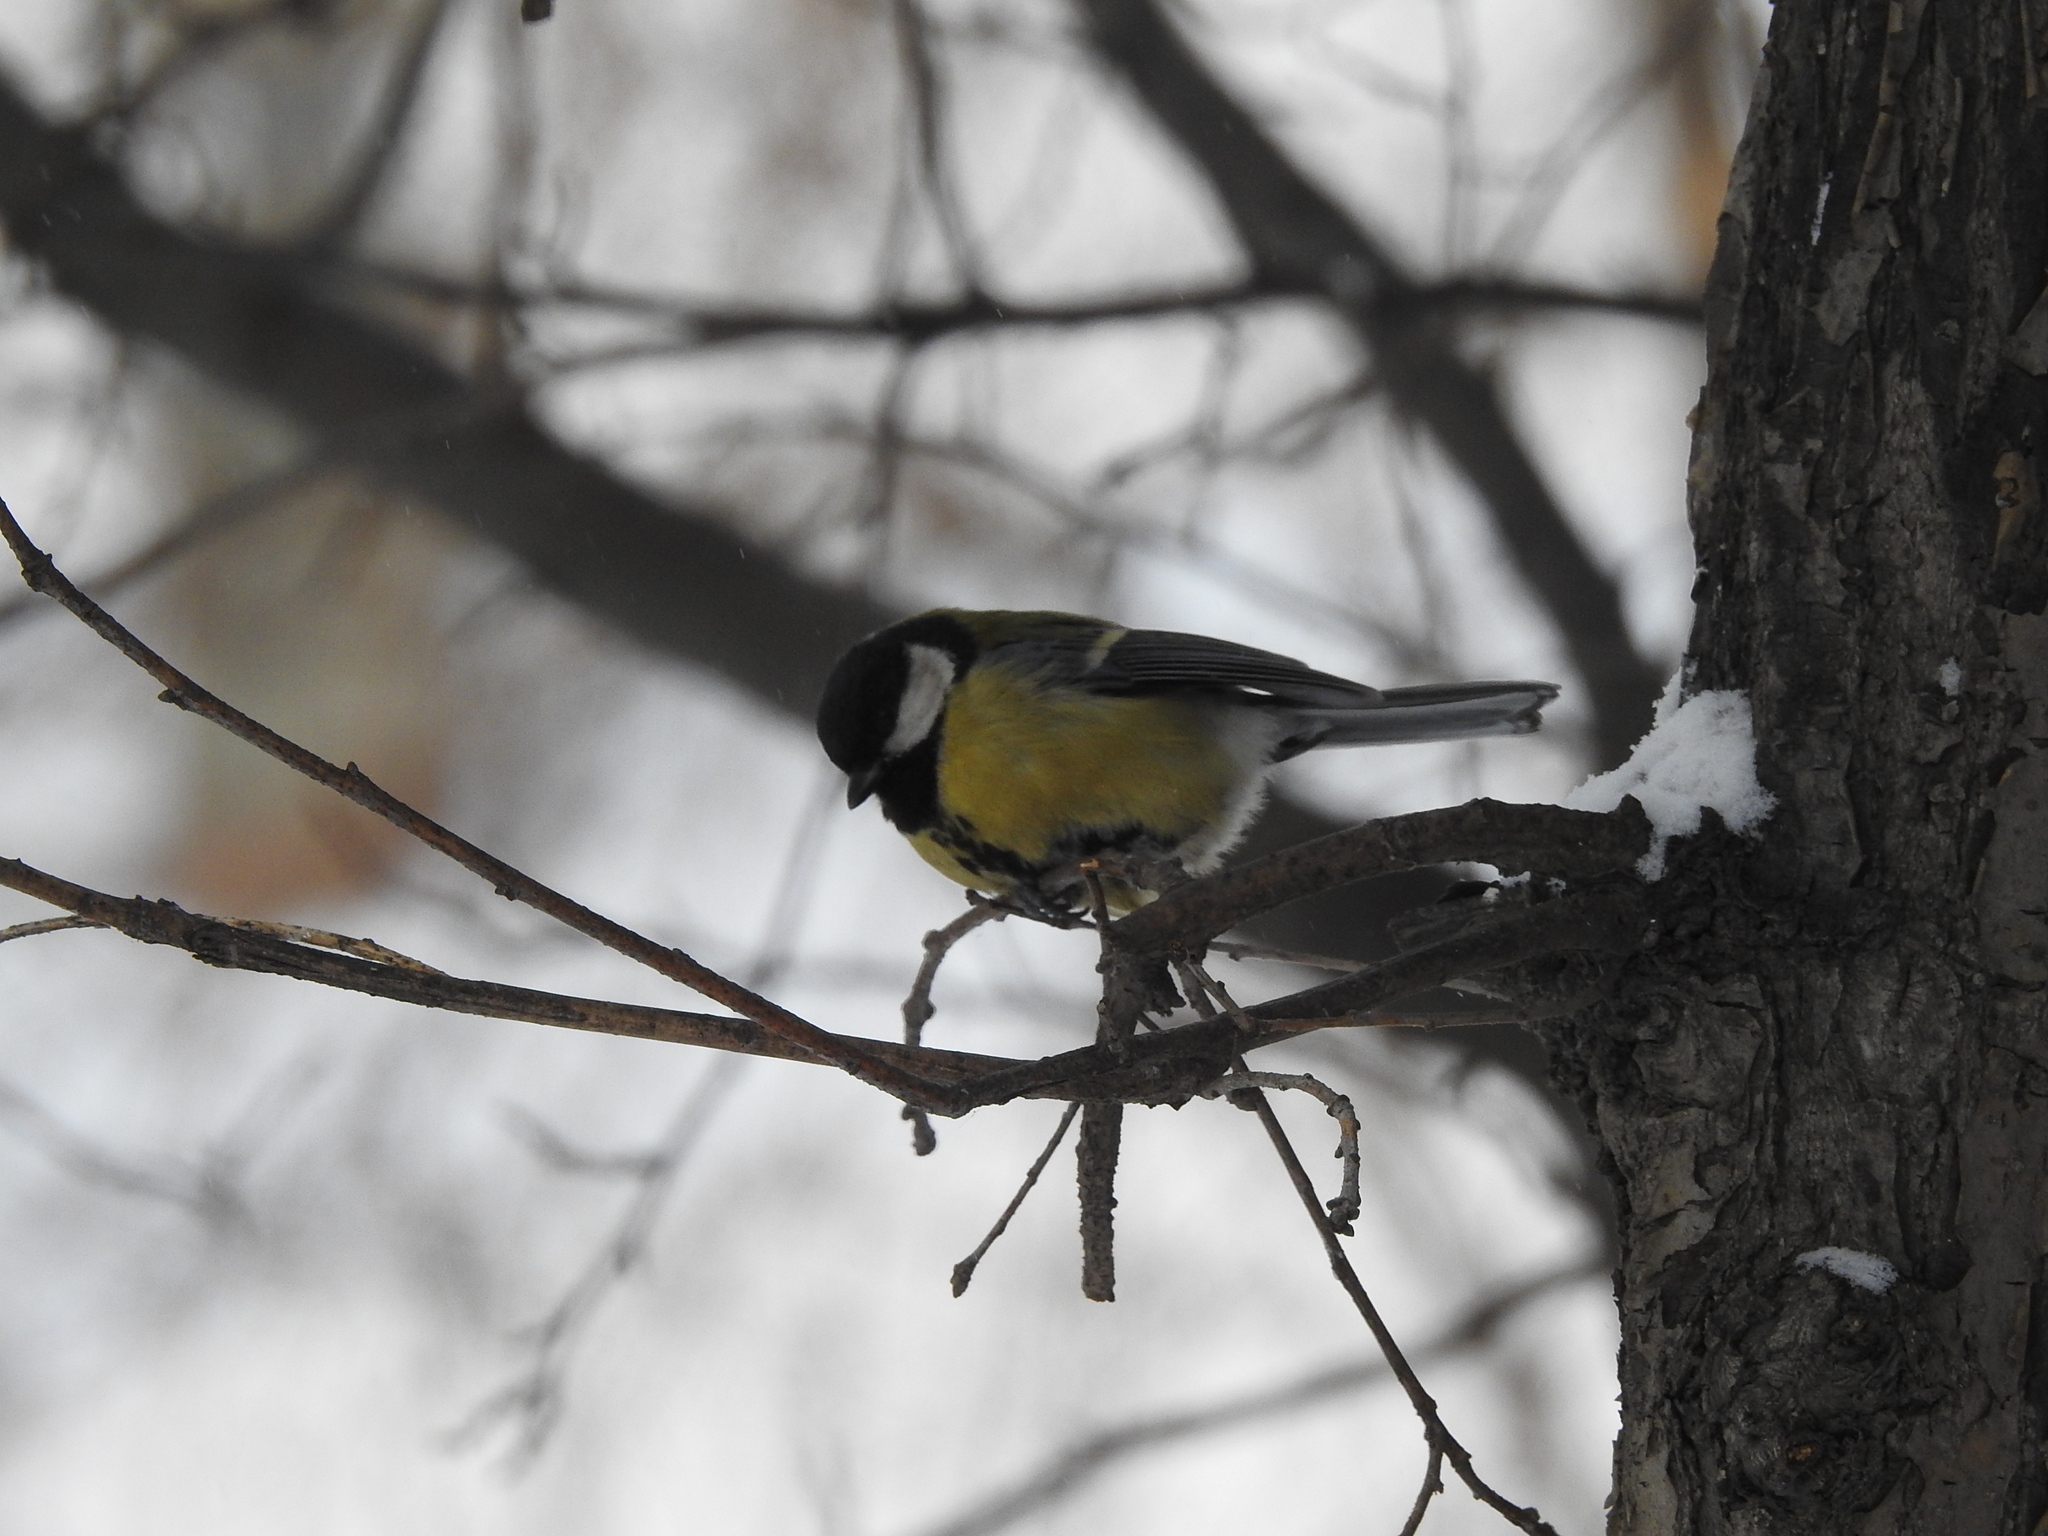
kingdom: Animalia
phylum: Chordata
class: Aves
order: Passeriformes
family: Paridae
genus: Parus
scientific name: Parus major
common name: Great tit
